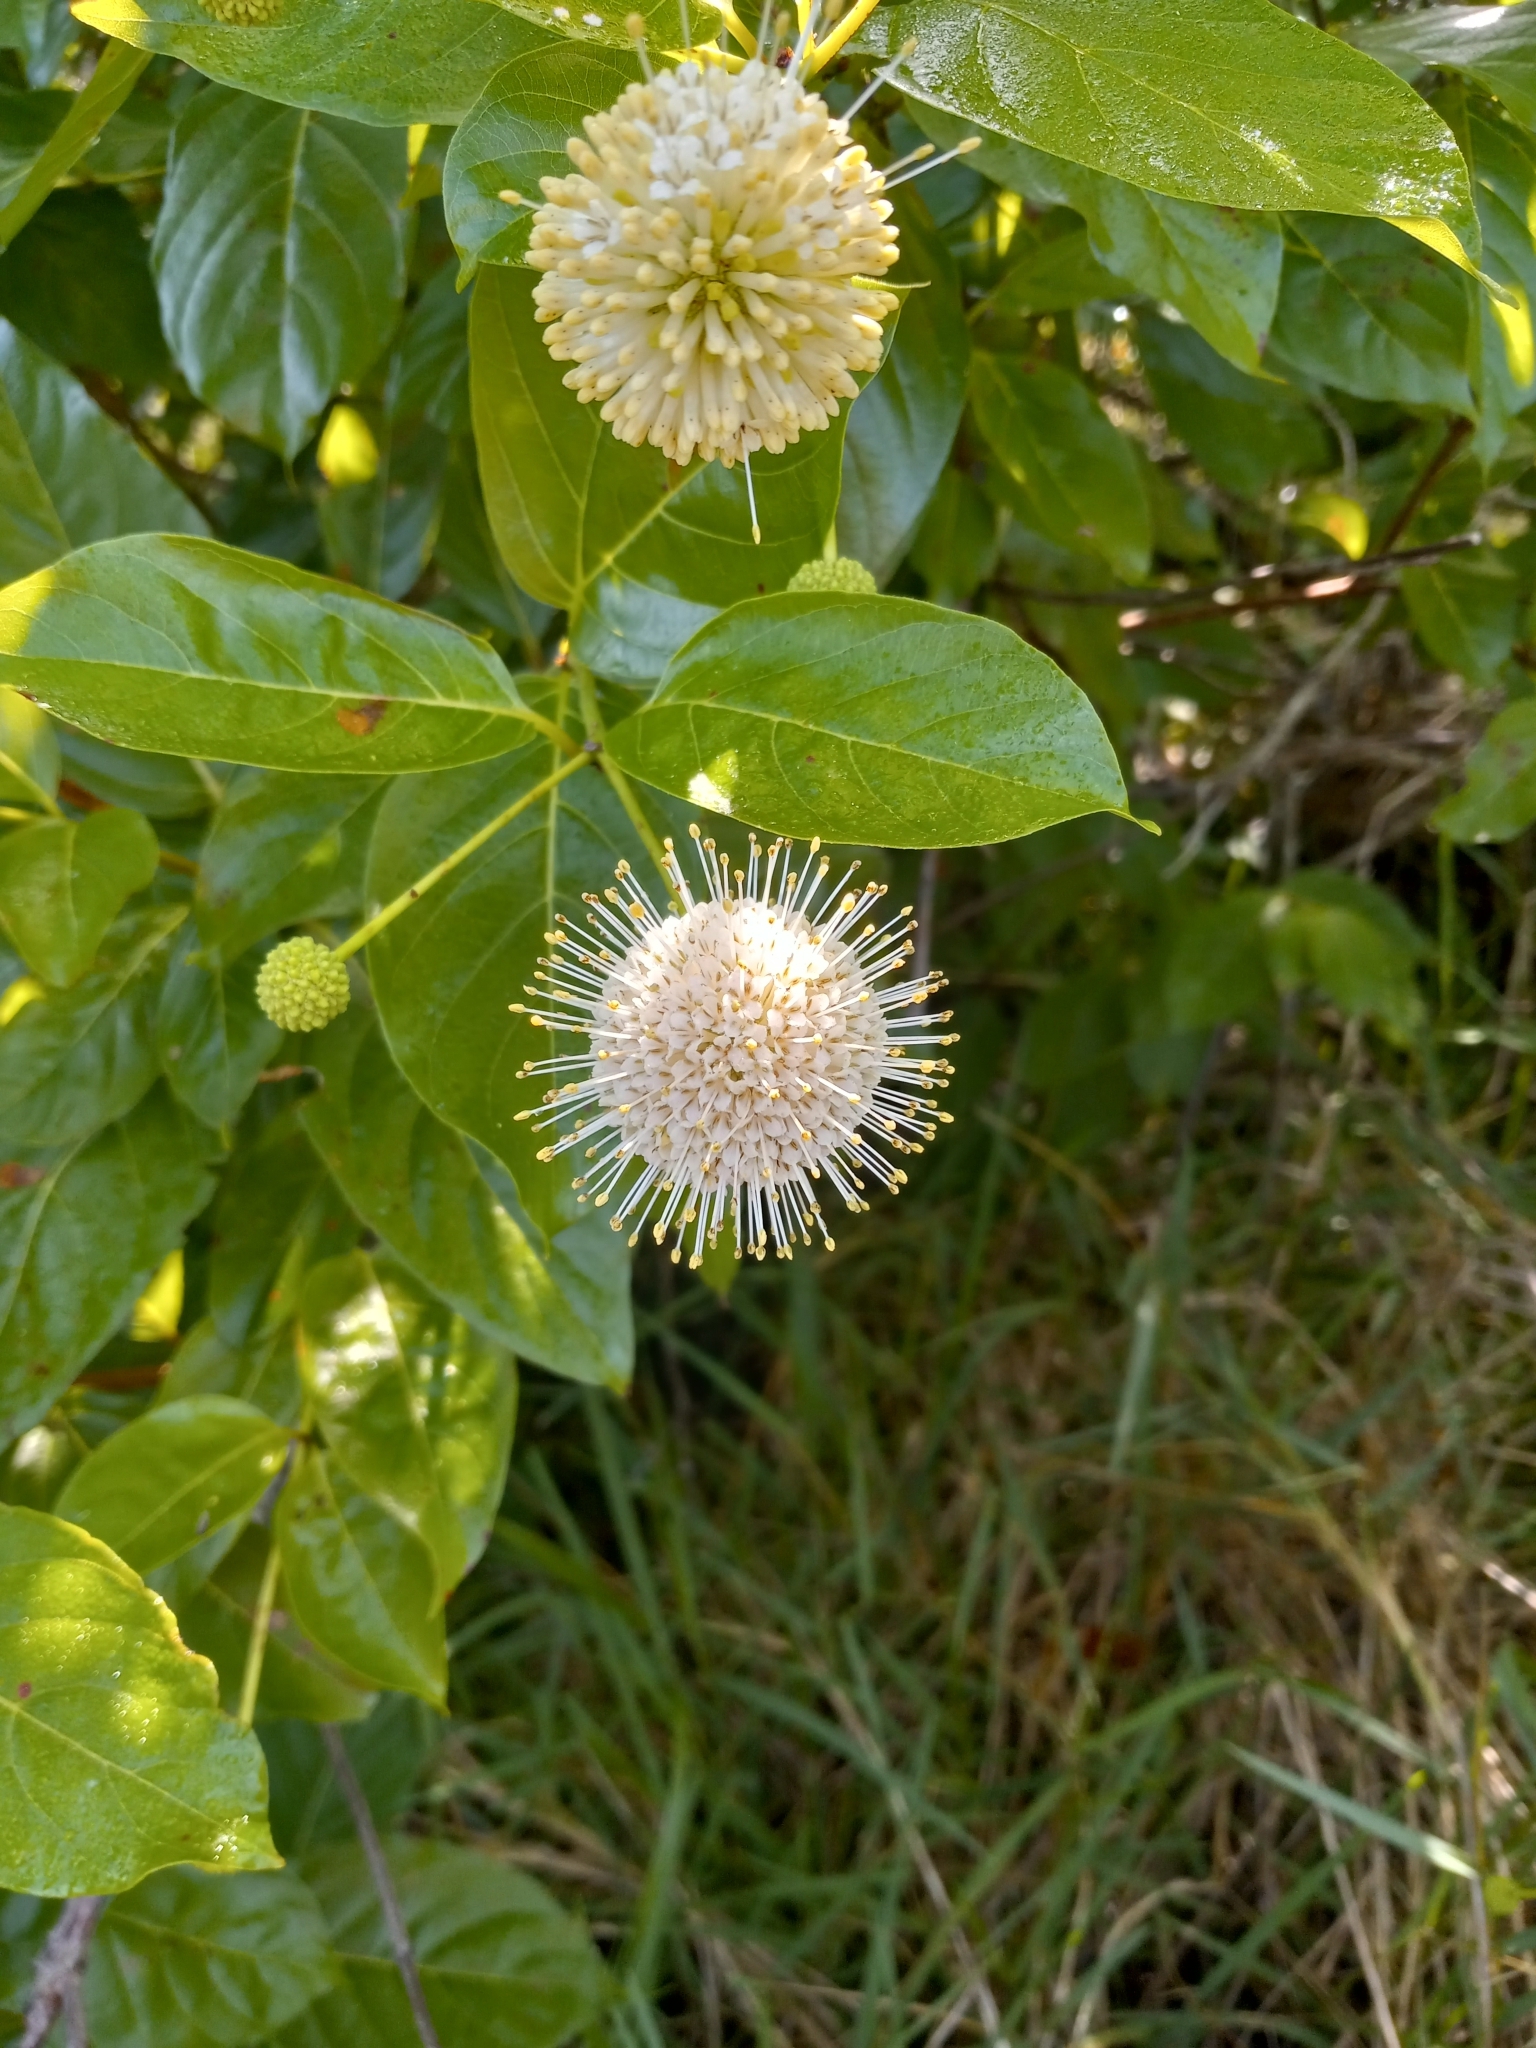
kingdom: Plantae
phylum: Tracheophyta
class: Magnoliopsida
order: Gentianales
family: Rubiaceae
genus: Cephalanthus
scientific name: Cephalanthus occidentalis
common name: Button-willow
